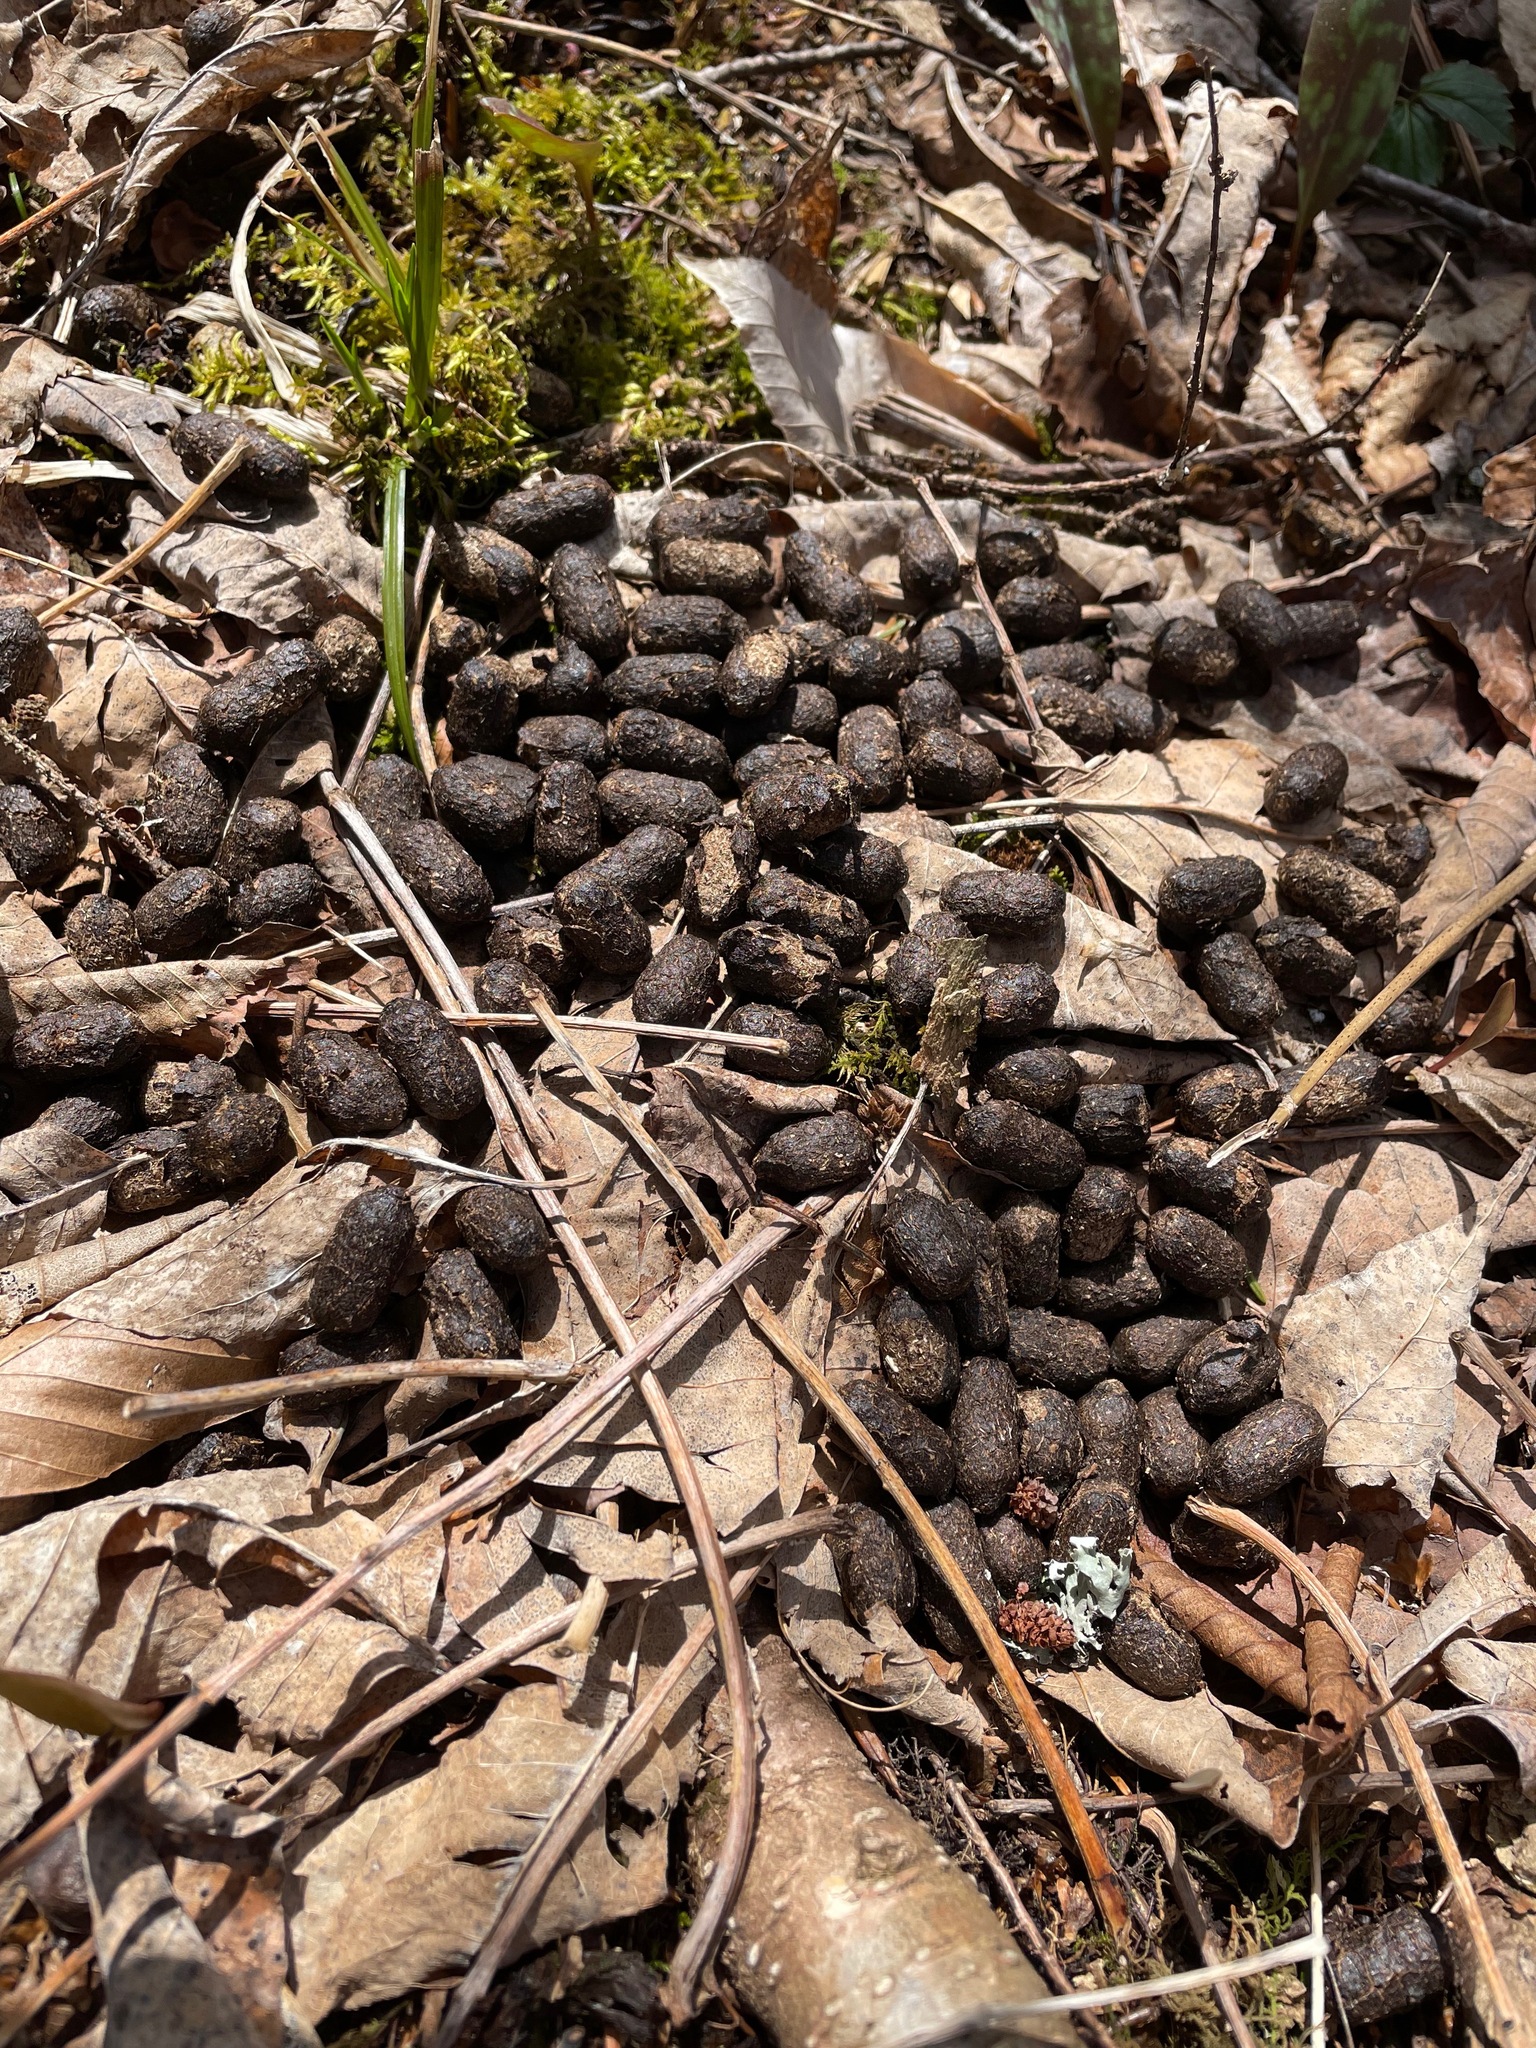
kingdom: Animalia
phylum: Chordata
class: Mammalia
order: Artiodactyla
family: Cervidae
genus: Odocoileus
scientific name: Odocoileus virginianus
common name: White-tailed deer
